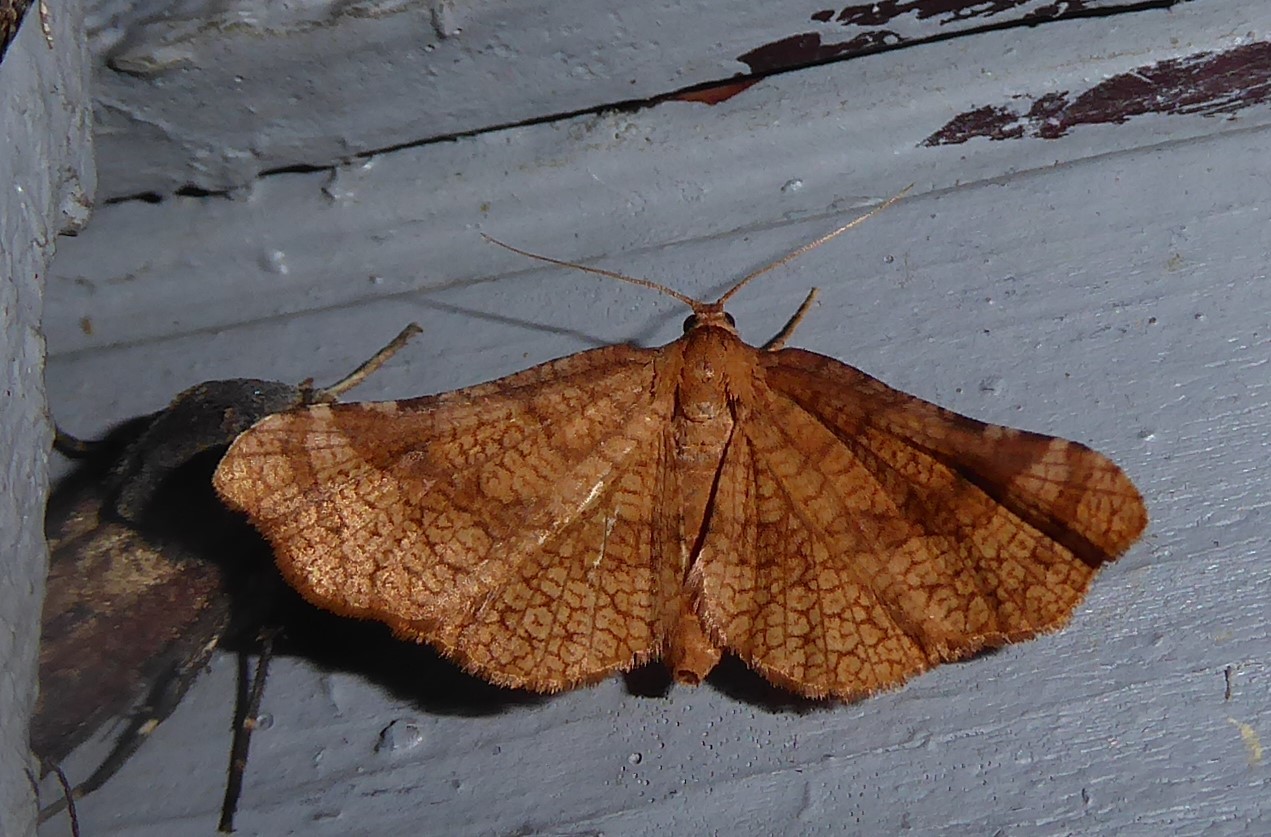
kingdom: Animalia
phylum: Arthropoda
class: Insecta
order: Lepidoptera
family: Thyrididae
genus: Morova
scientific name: Morova subfasciata
